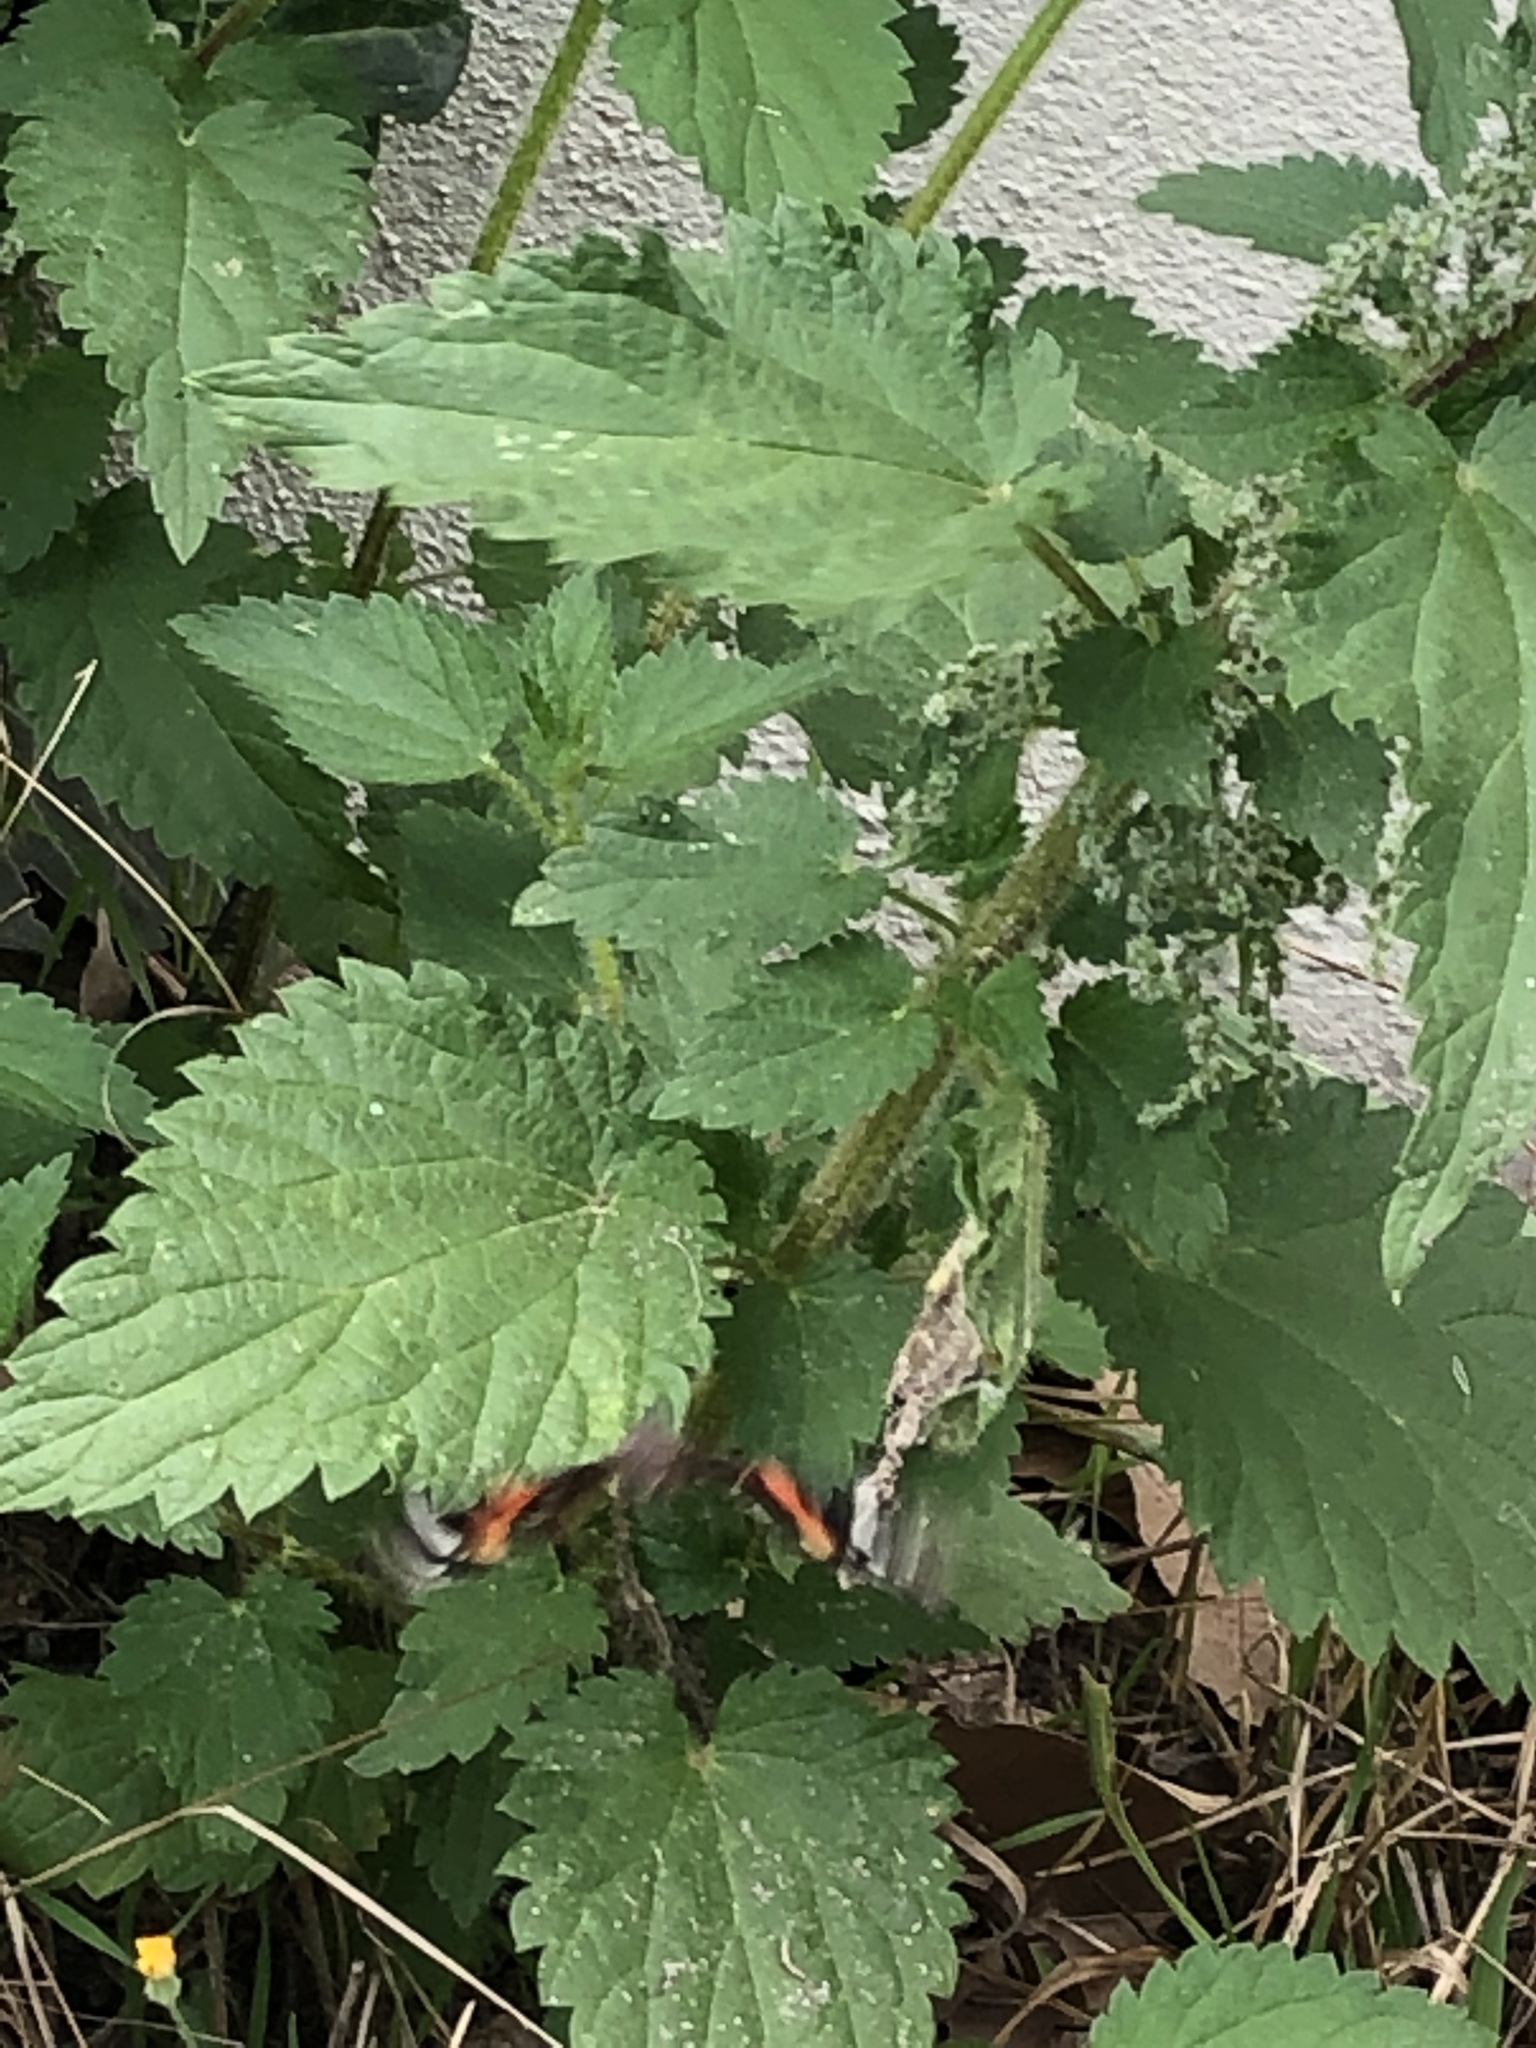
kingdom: Animalia
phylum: Arthropoda
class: Insecta
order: Lepidoptera
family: Nymphalidae
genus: Vanessa
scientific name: Vanessa atalanta
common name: Red admiral
